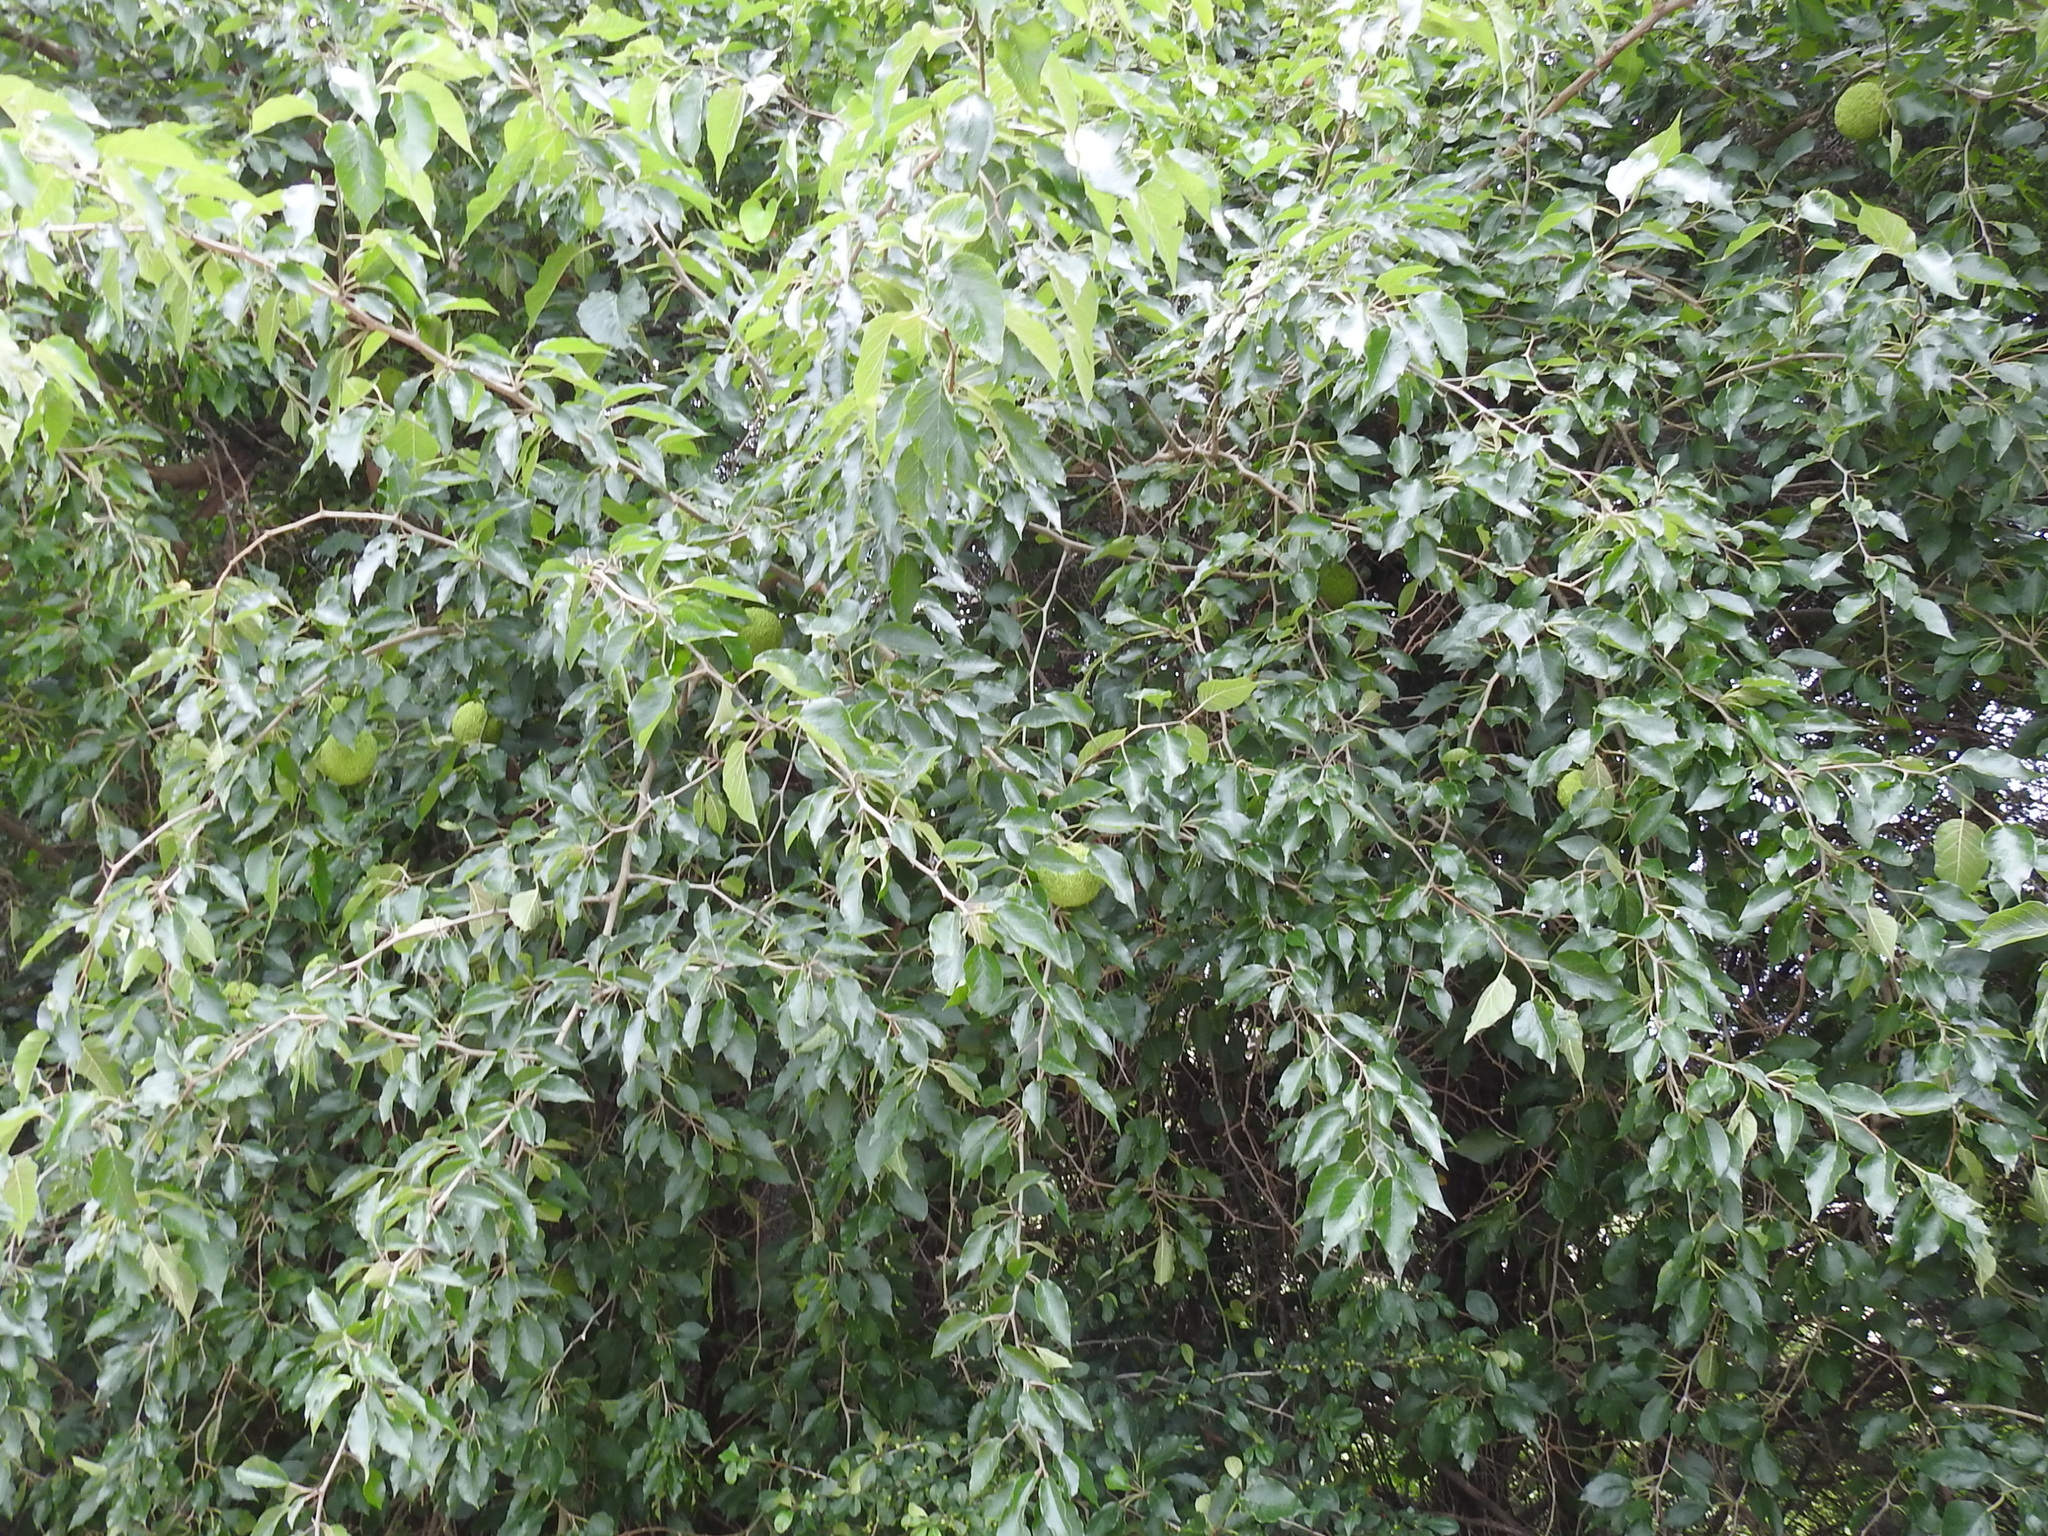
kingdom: Plantae
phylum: Tracheophyta
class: Magnoliopsida
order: Rosales
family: Moraceae
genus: Maclura
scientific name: Maclura pomifera
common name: Osage-orange
